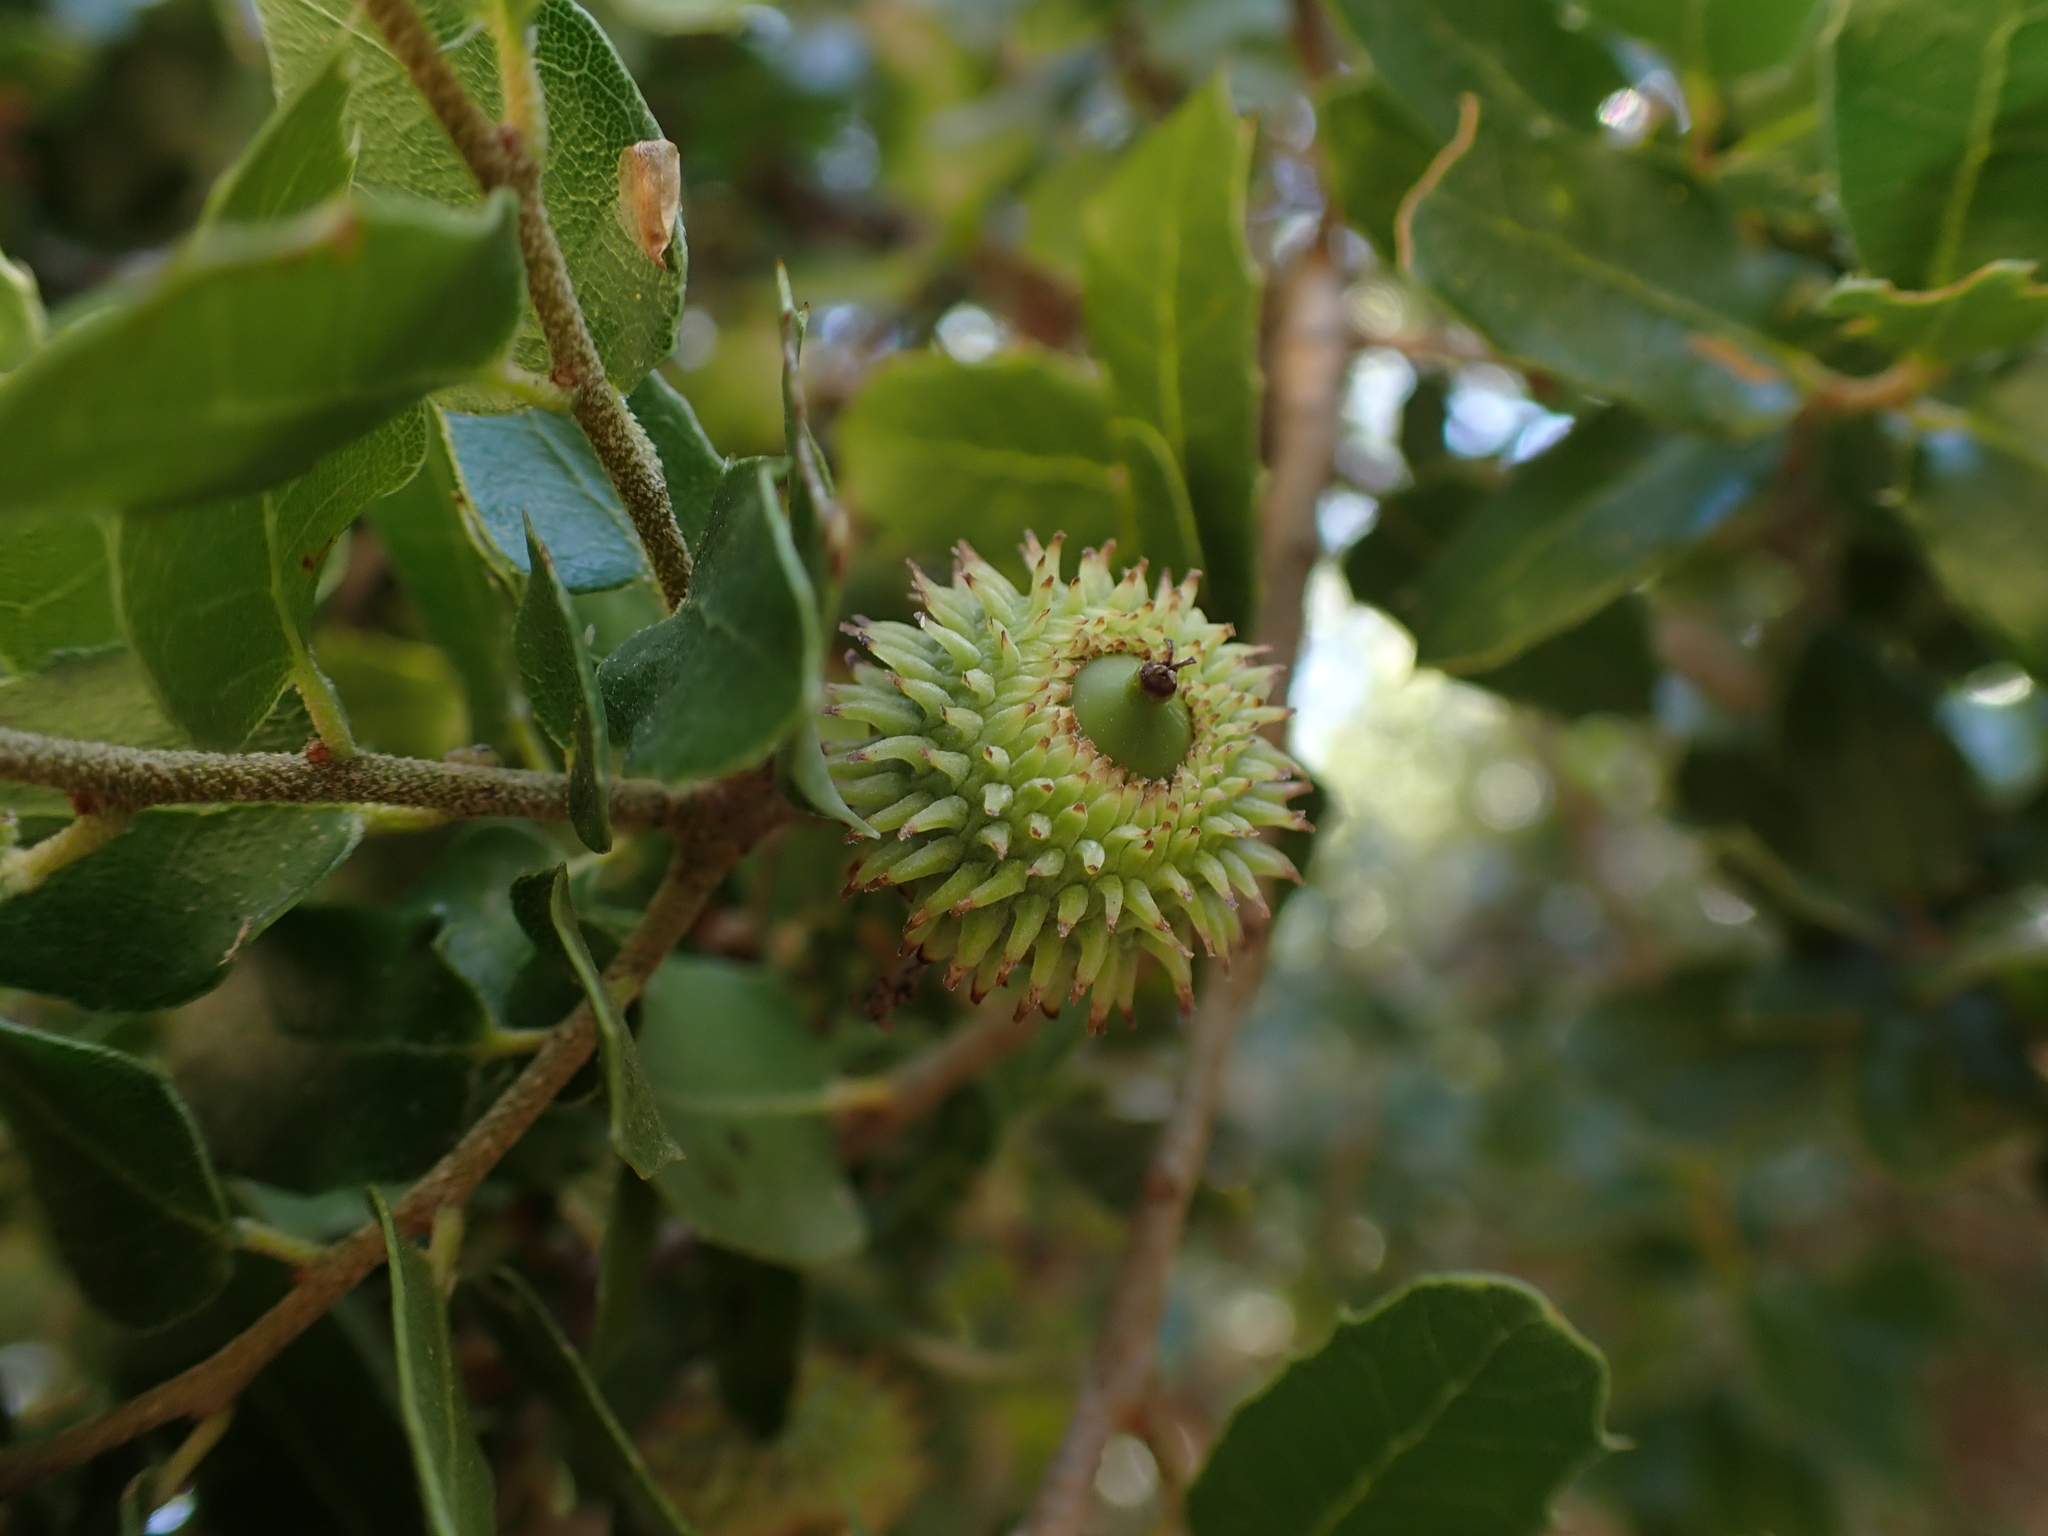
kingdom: Plantae
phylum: Tracheophyta
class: Magnoliopsida
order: Fagales
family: Fagaceae
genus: Quercus
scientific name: Quercus coccifera
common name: Kermes oak
